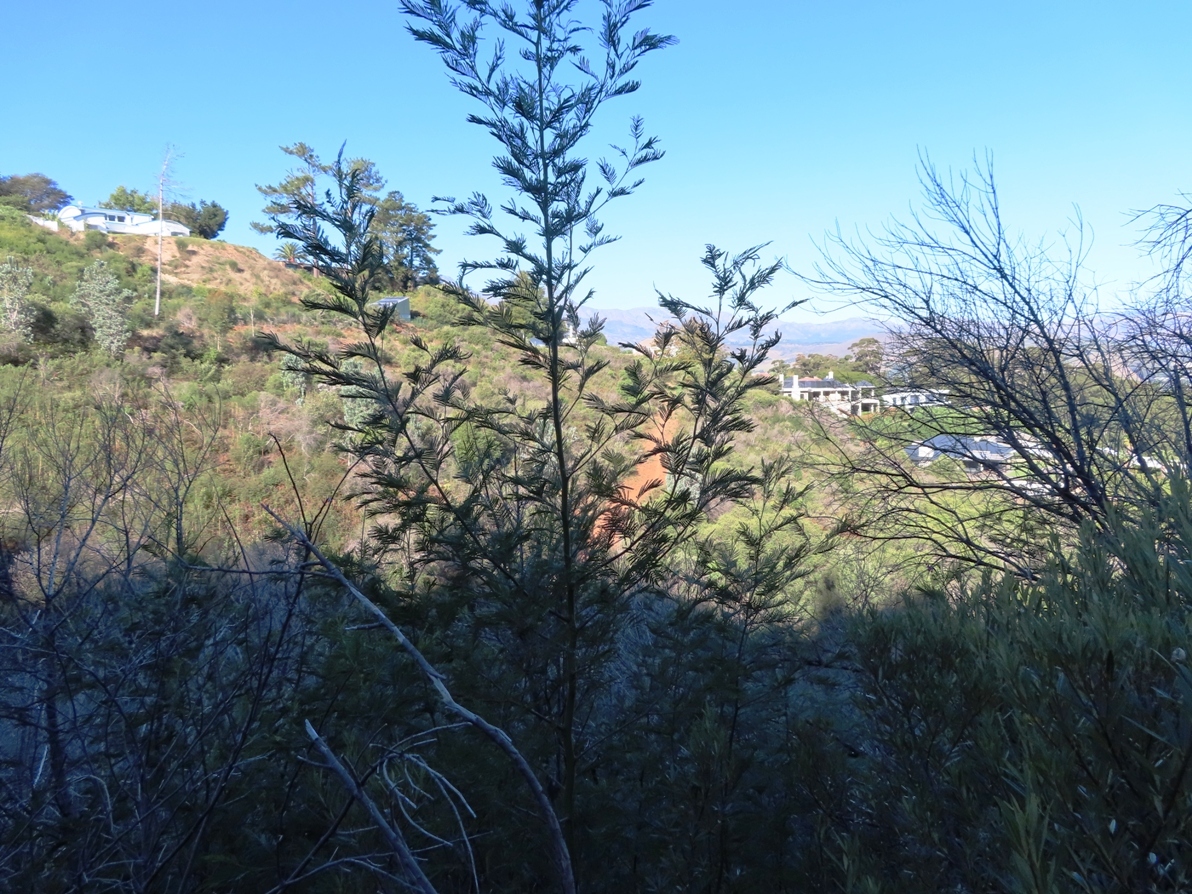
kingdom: Plantae
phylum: Tracheophyta
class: Magnoliopsida
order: Fabales
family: Fabaceae
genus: Acacia
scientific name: Acacia mearnsii
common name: Black wattle
